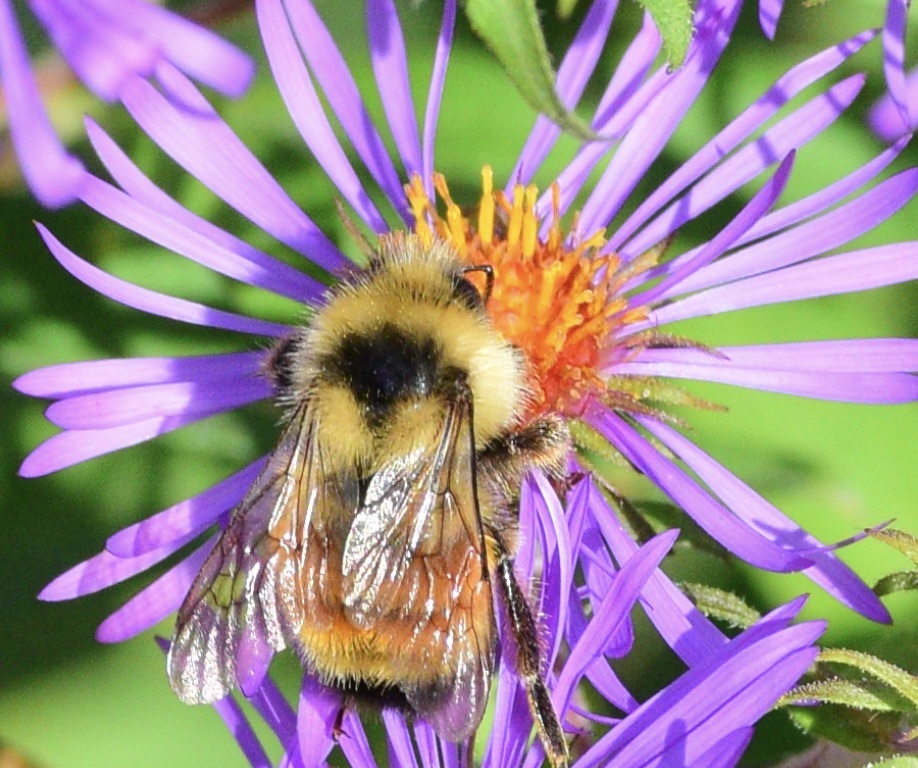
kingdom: Animalia
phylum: Arthropoda
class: Insecta
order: Hymenoptera
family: Apidae
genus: Bombus
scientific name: Bombus ternarius
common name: Tri-colored bumble bee
